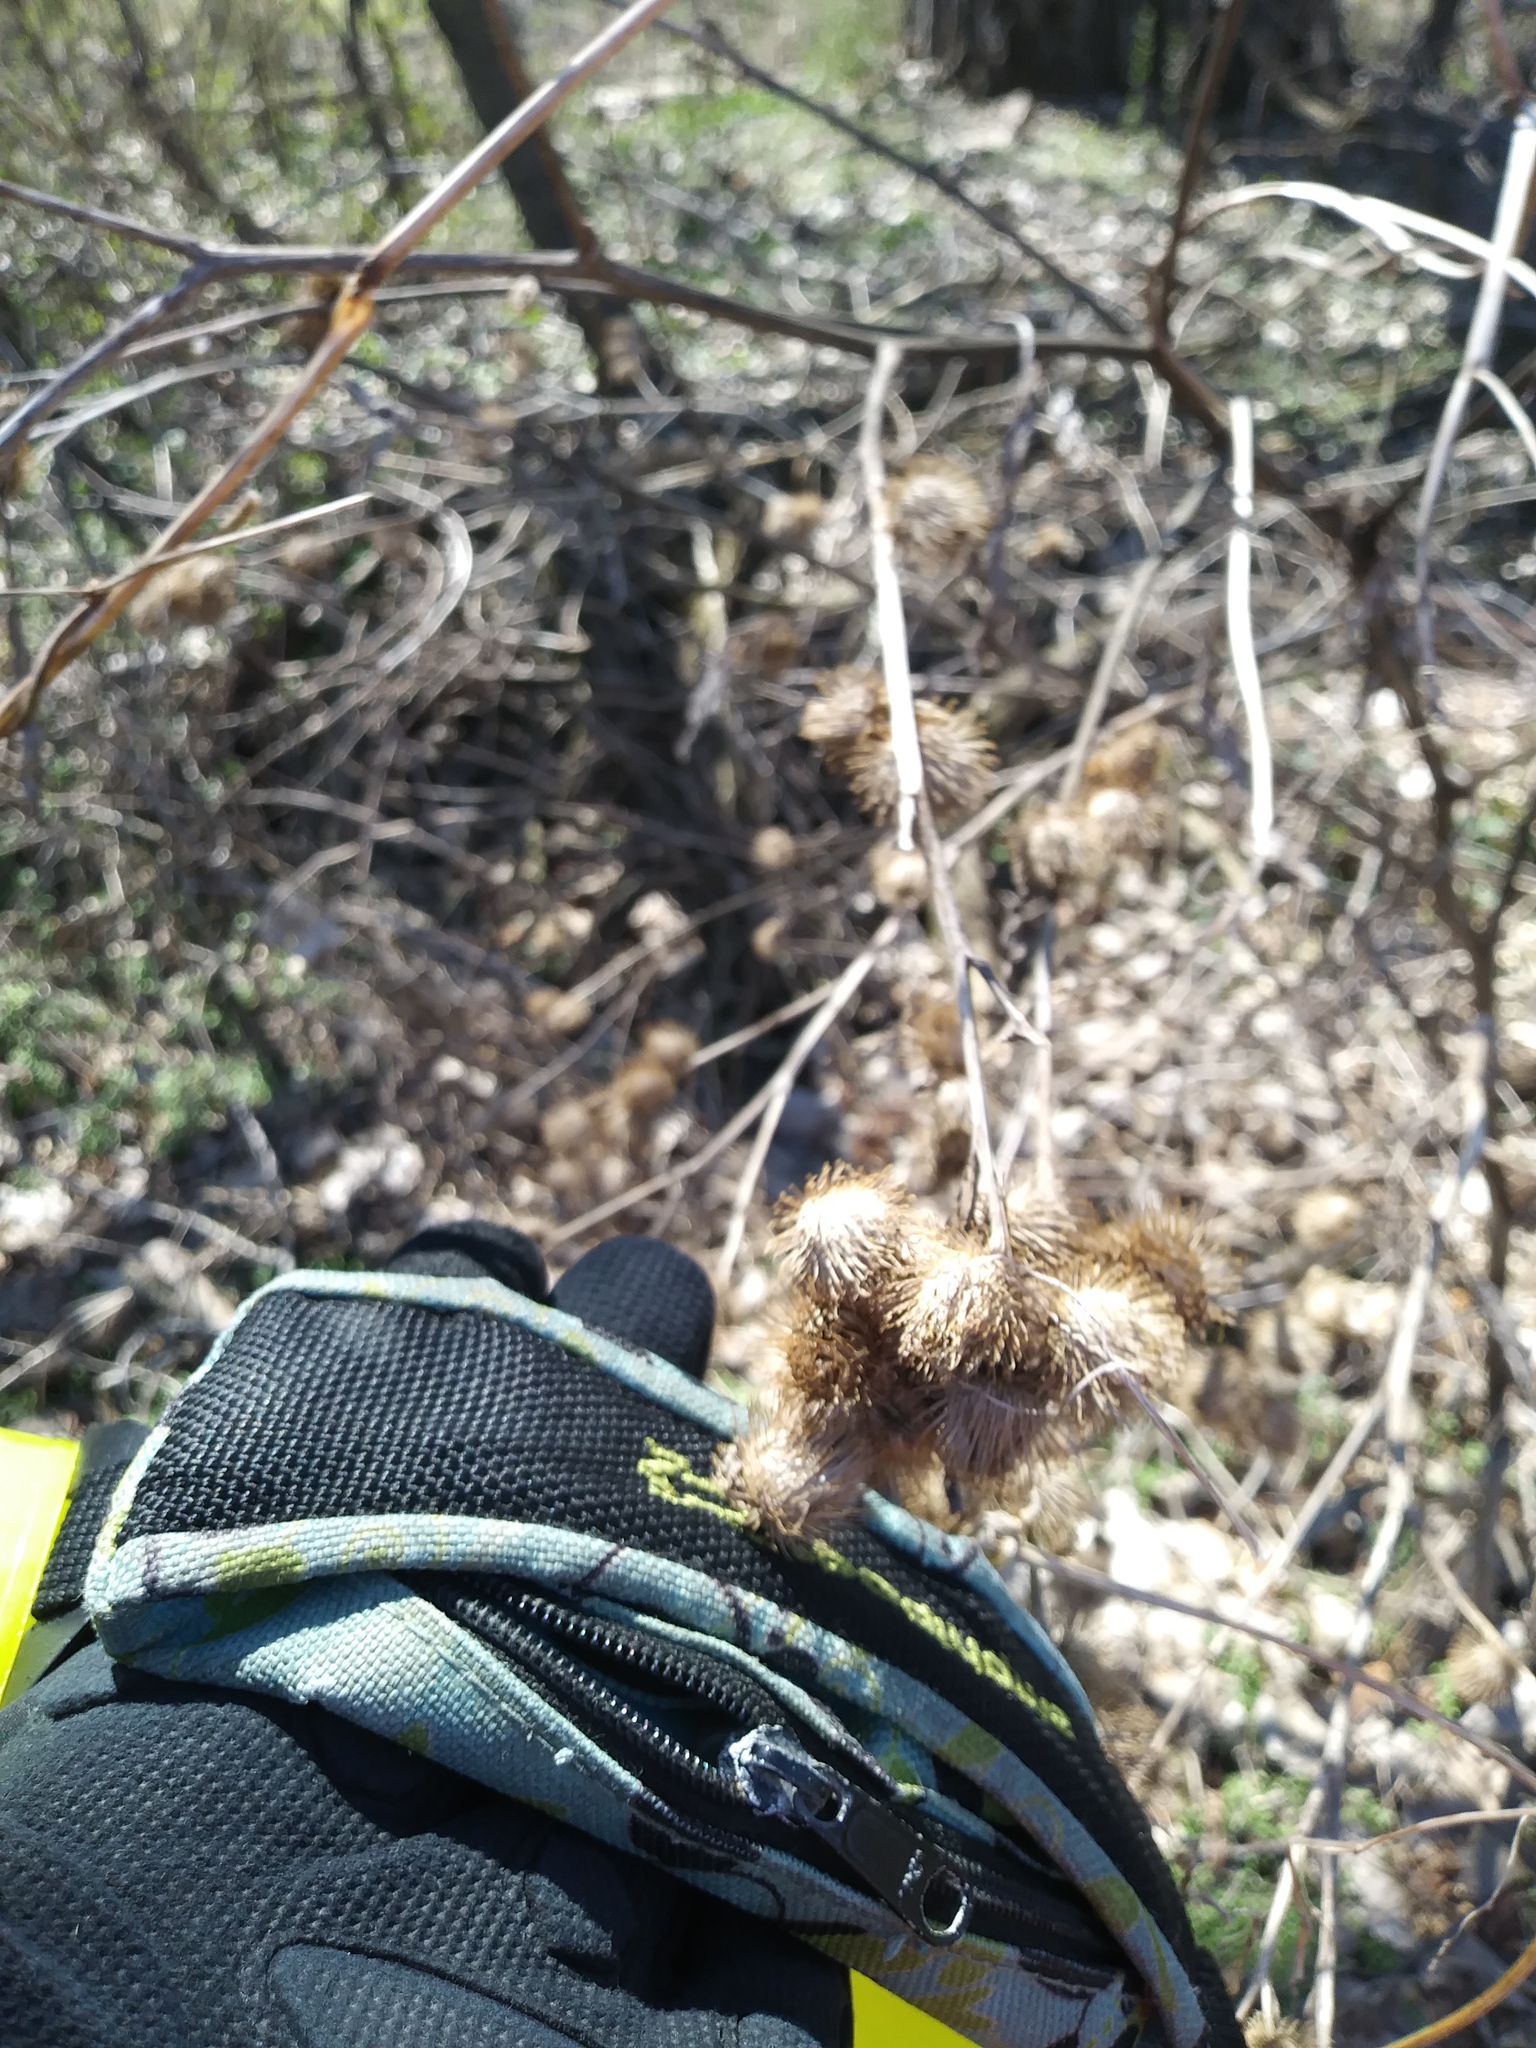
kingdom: Plantae
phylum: Tracheophyta
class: Magnoliopsida
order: Asterales
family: Asteraceae
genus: Arctium
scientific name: Arctium minus
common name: Lesser burdock
